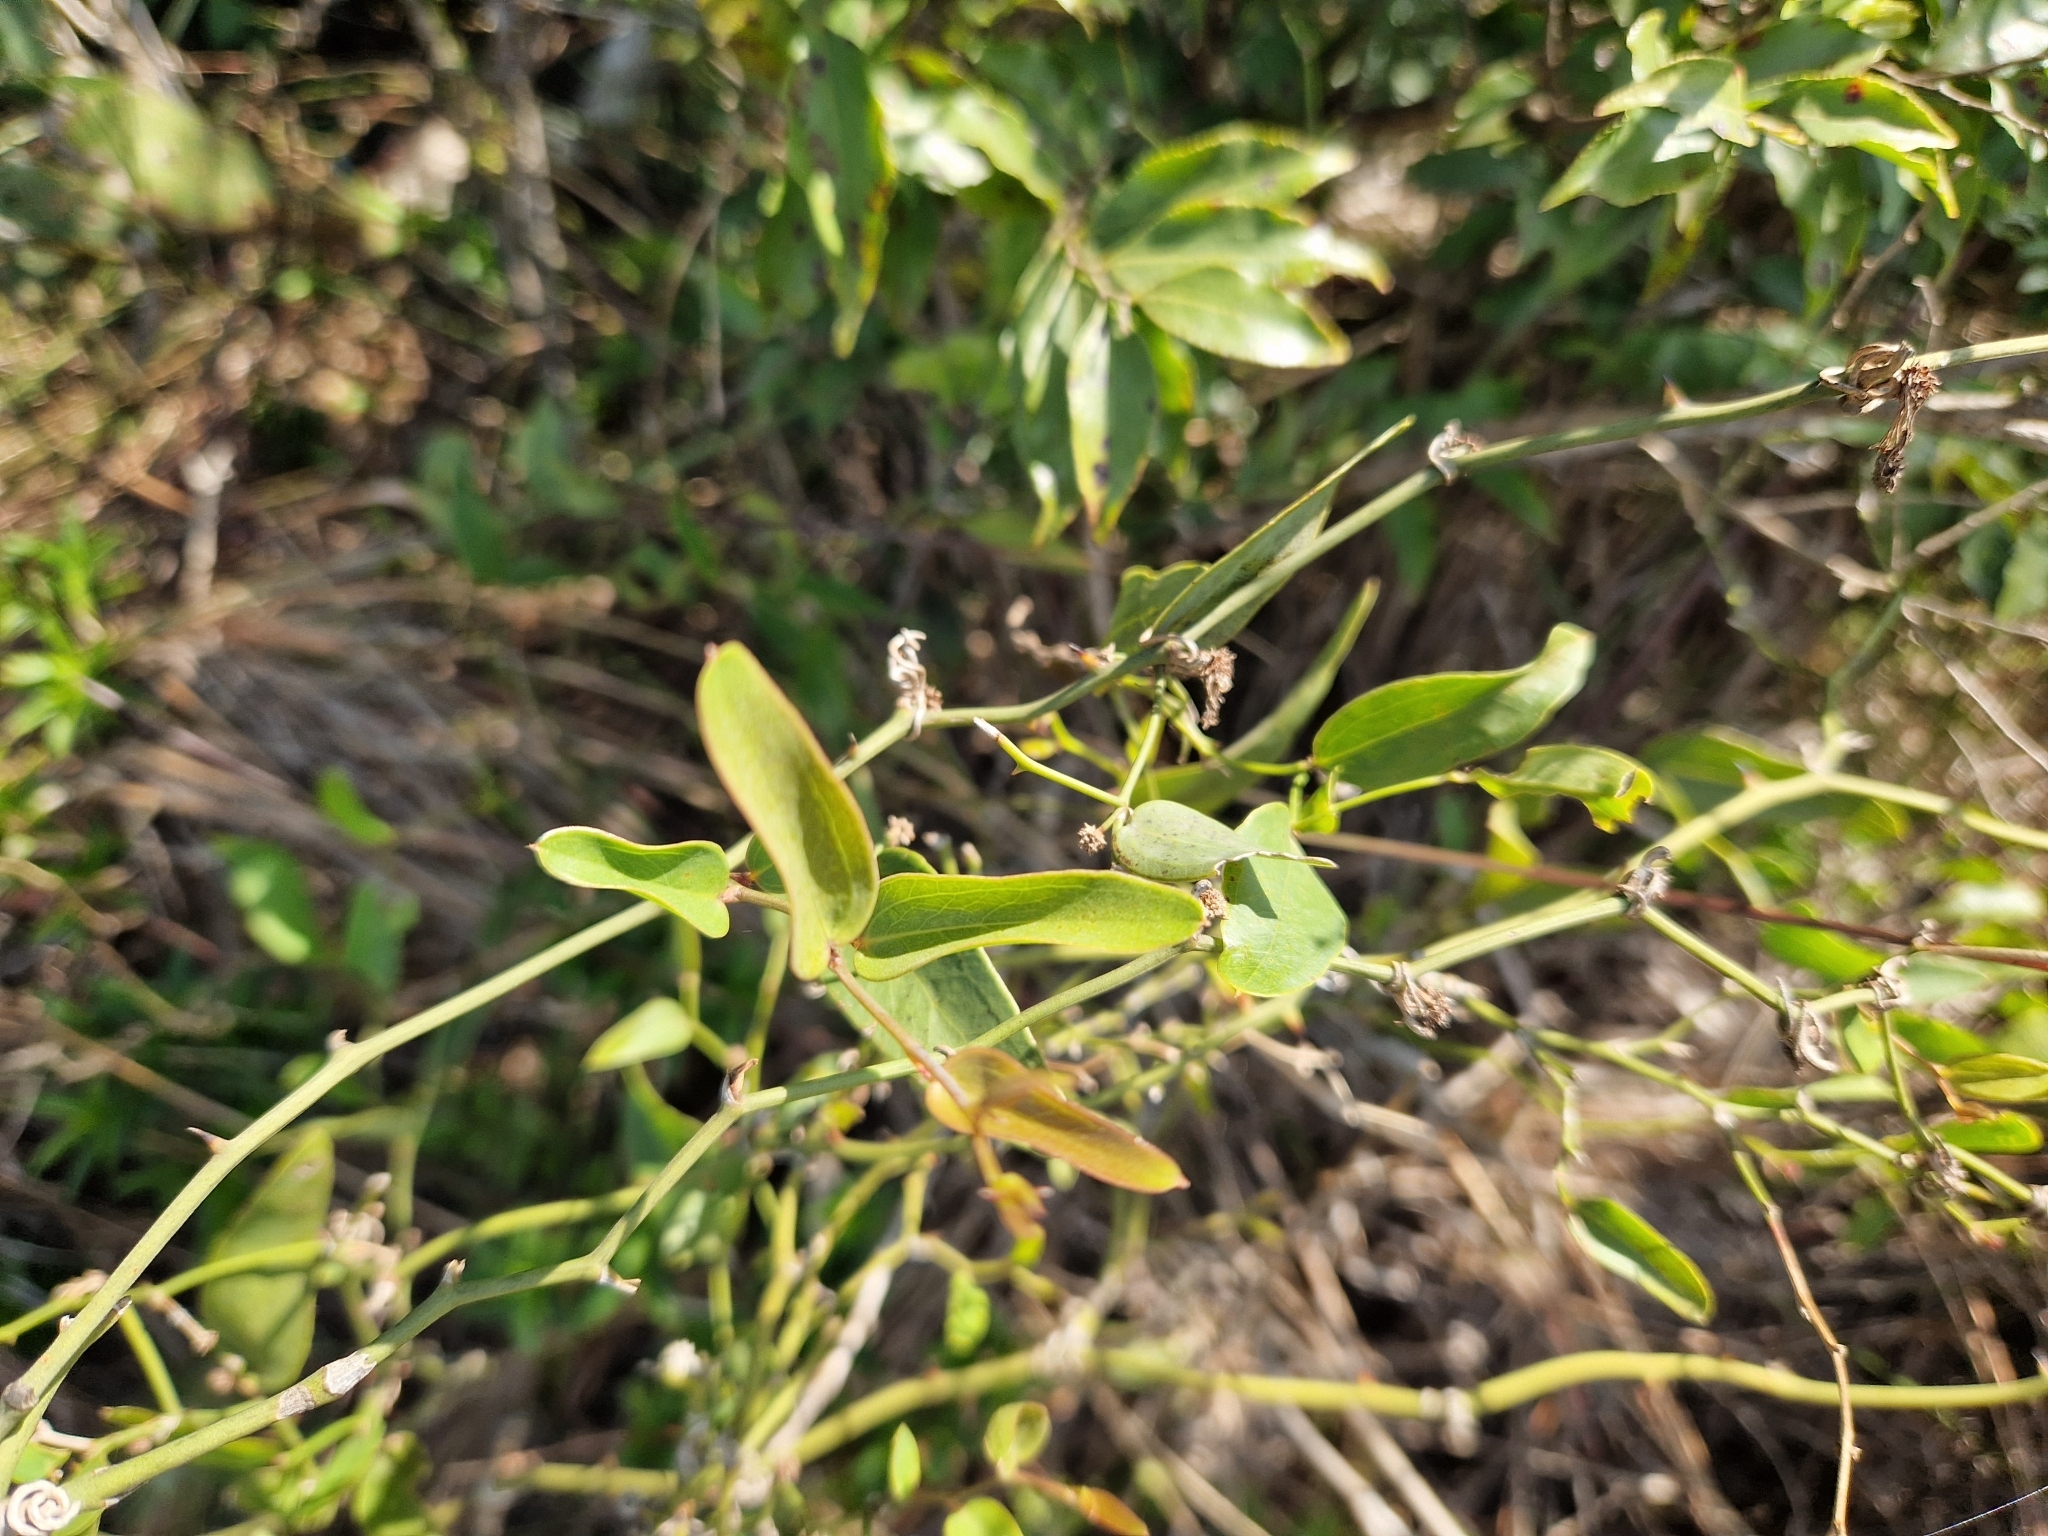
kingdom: Plantae
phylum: Tracheophyta
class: Liliopsida
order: Liliales
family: Smilacaceae
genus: Smilax
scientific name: Smilax campestris
